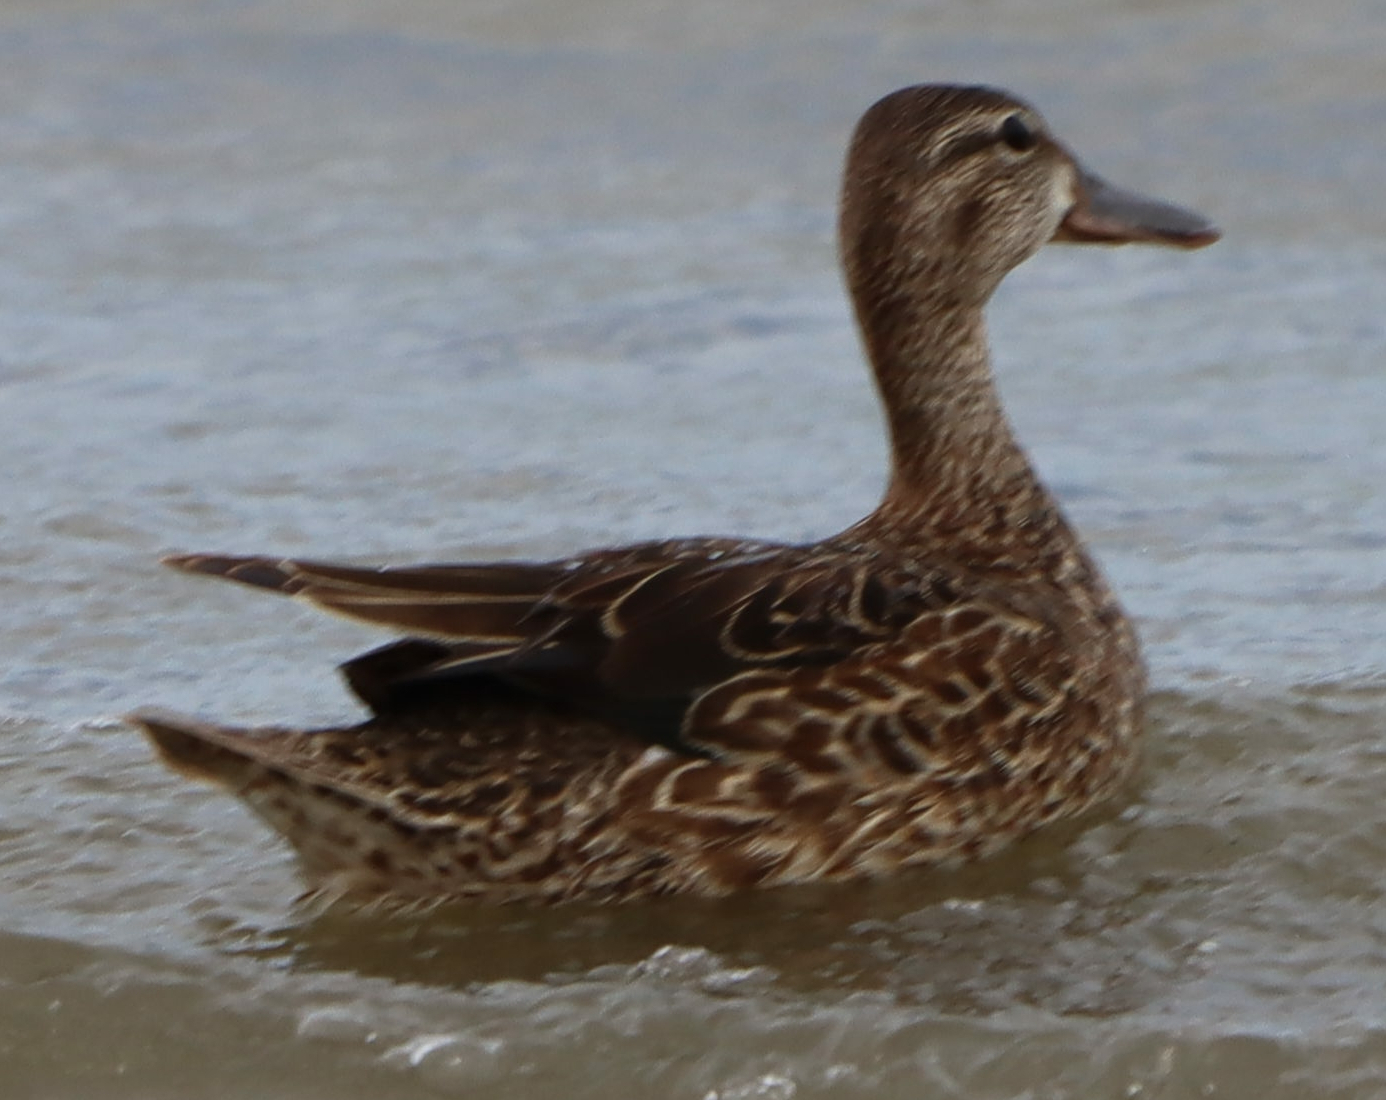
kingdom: Animalia
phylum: Chordata
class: Aves
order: Anseriformes
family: Anatidae
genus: Spatula
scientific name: Spatula discors
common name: Blue-winged teal
